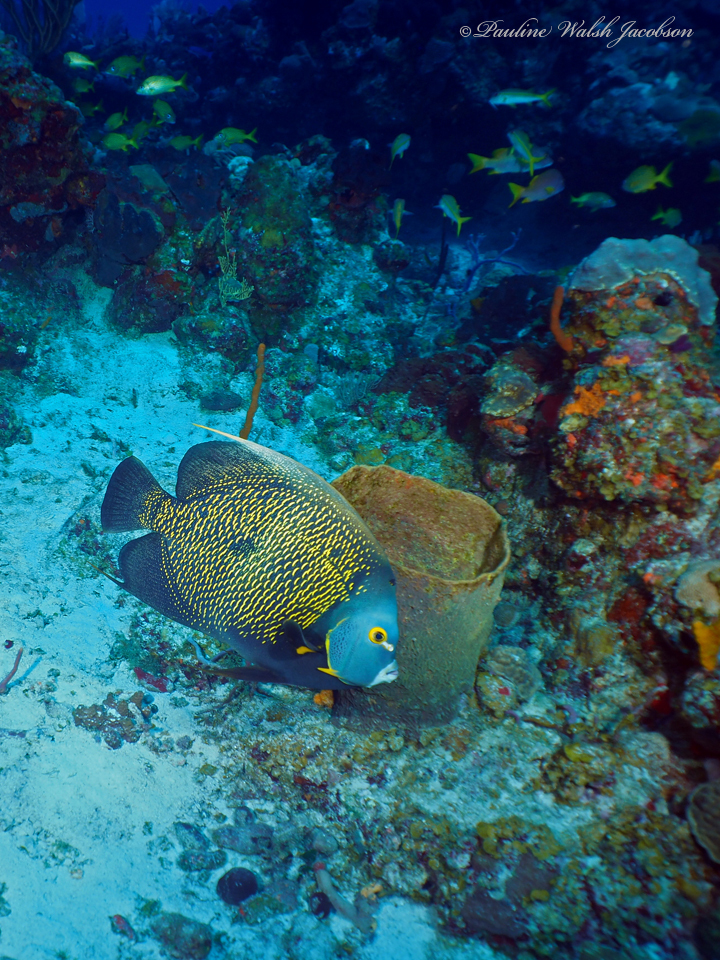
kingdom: Animalia
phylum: Chordata
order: Perciformes
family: Pomacanthidae
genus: Pomacanthus
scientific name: Pomacanthus paru
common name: French angelfish
